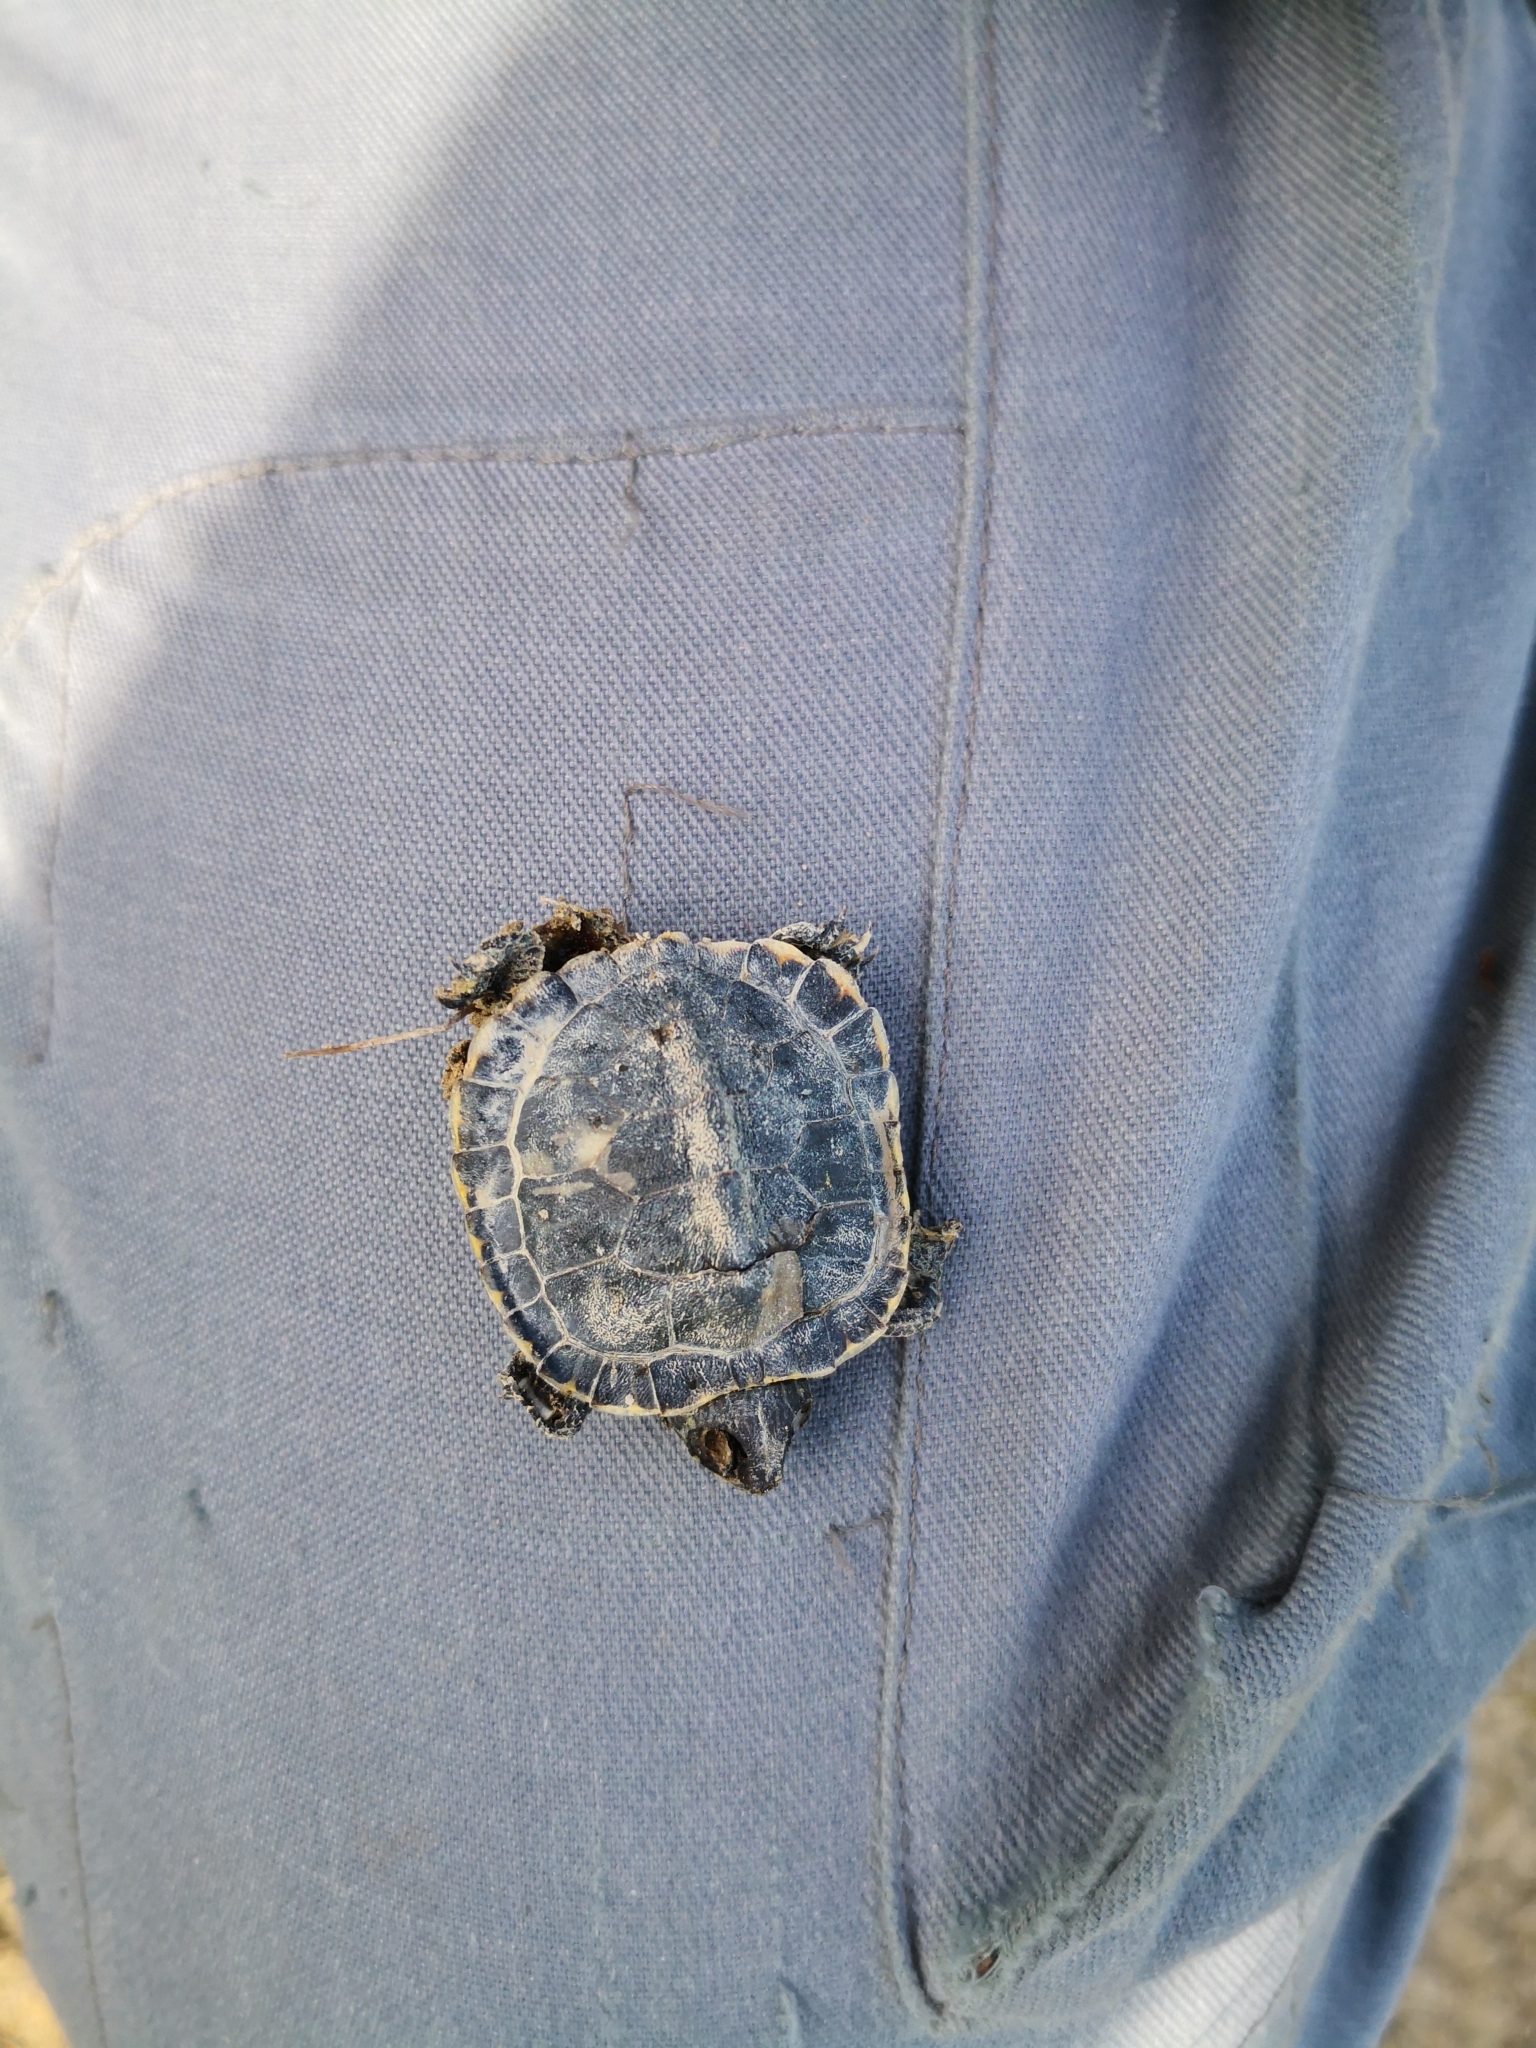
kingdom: Animalia
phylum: Chordata
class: Testudines
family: Emydidae
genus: Trachemys
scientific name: Trachemys scripta
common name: Slider
